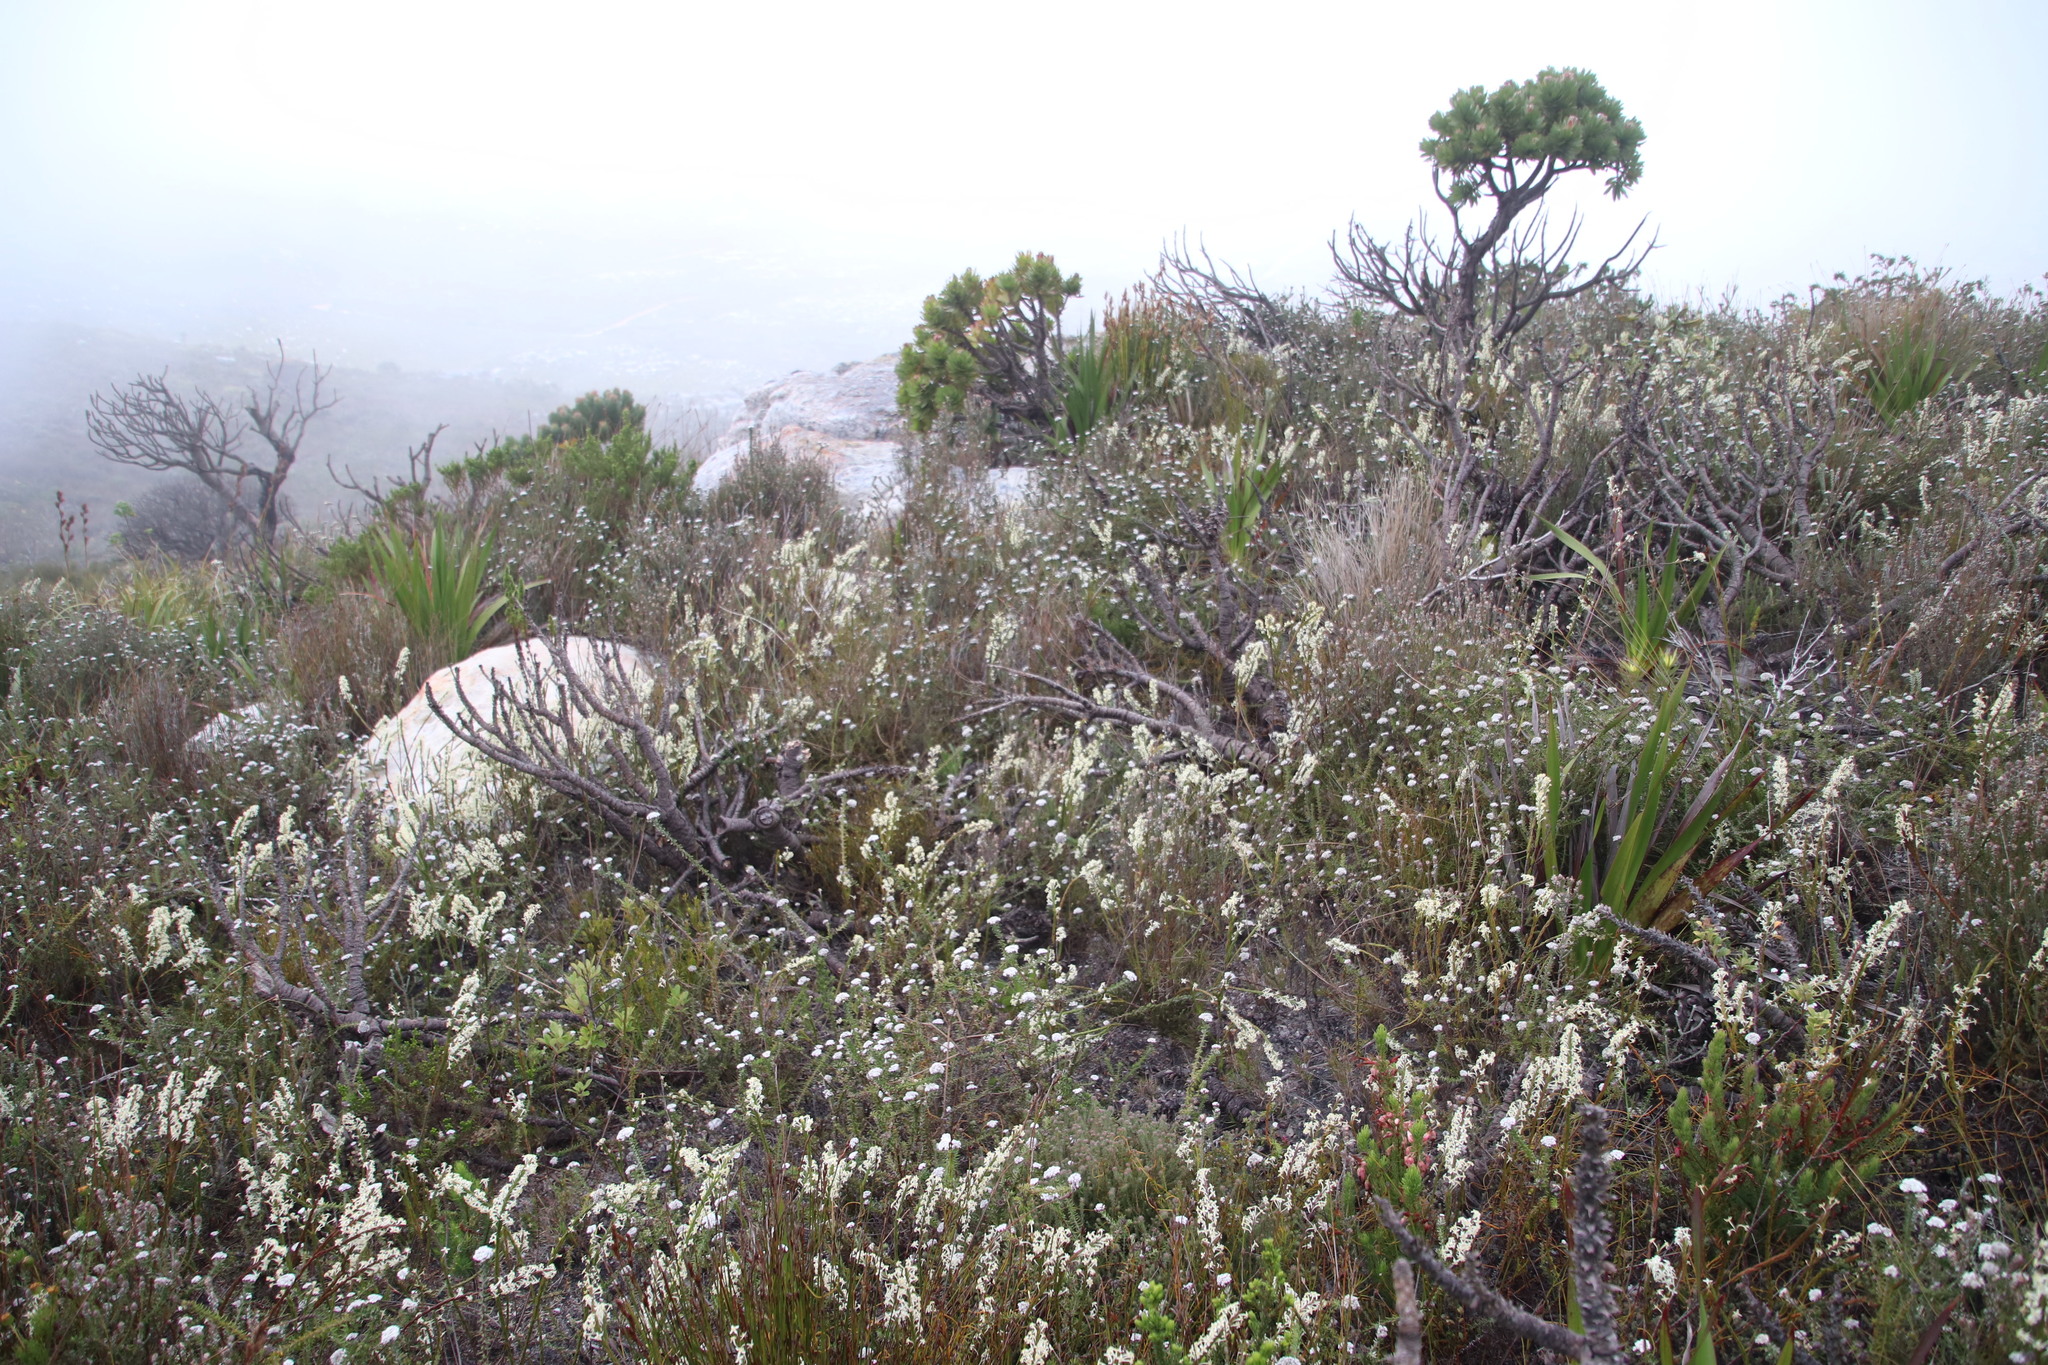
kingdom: Plantae
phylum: Tracheophyta
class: Magnoliopsida
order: Malvales
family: Thymelaeaceae
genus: Struthiola
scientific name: Struthiola ciliata
